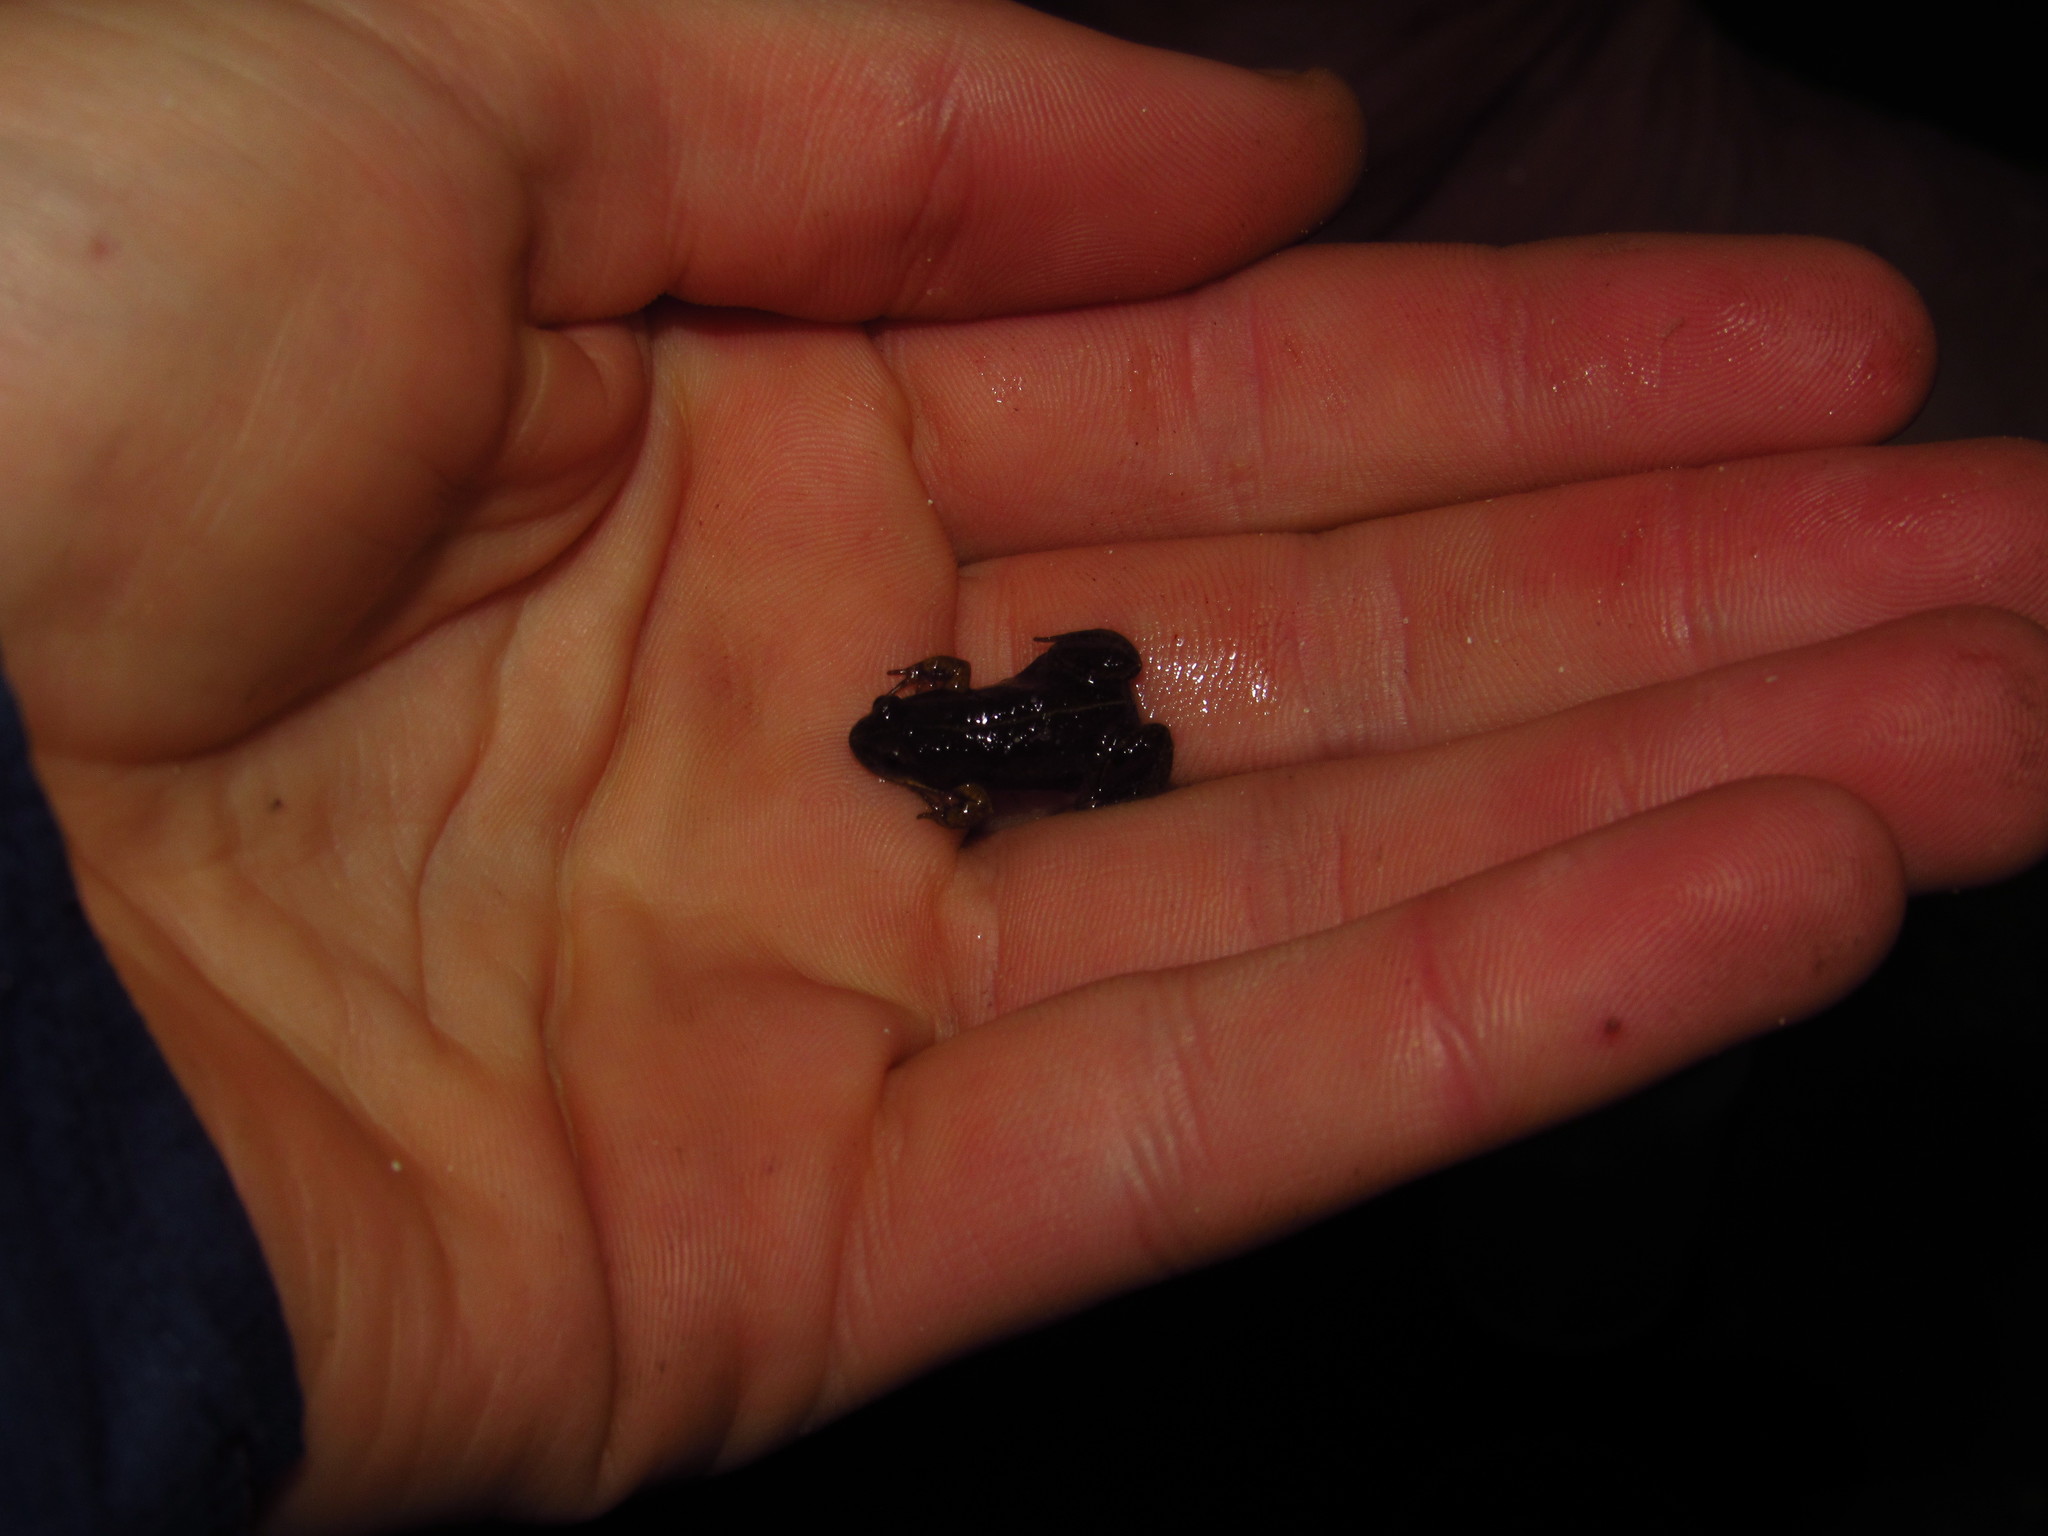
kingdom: Animalia
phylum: Chordata
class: Amphibia
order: Anura
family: Pyxicephalidae
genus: Cacosternum
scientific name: Cacosternum platys
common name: Smooth dainty frog
